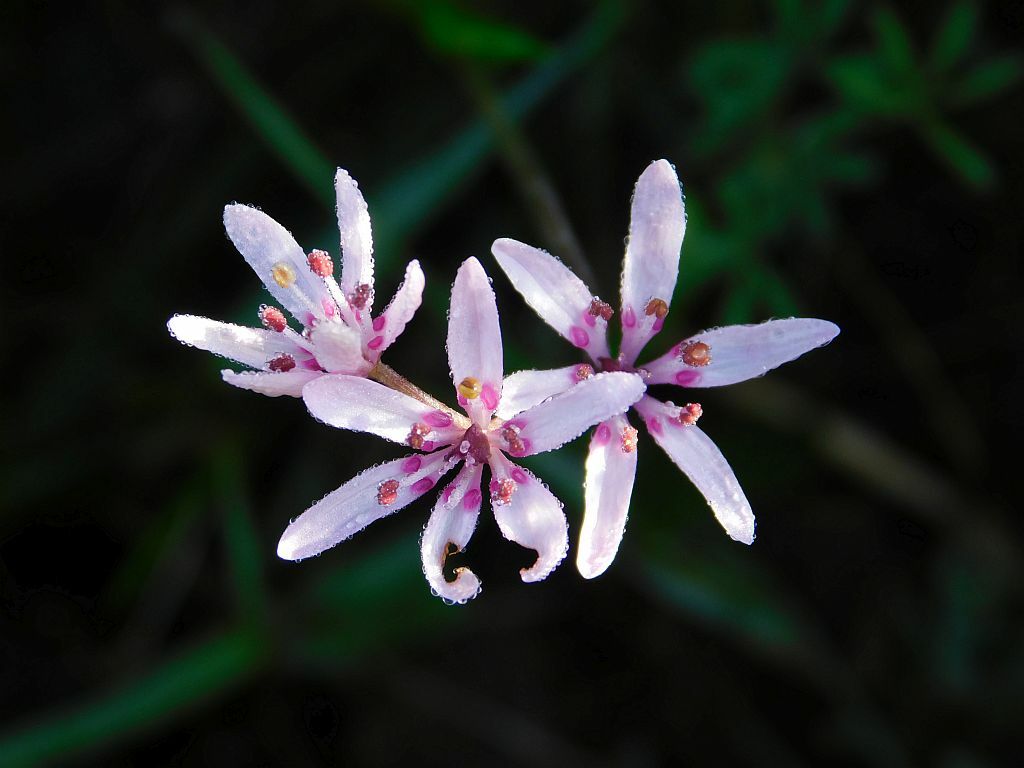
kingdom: Plantae
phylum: Tracheophyta
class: Liliopsida
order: Liliales
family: Colchicaceae
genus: Wurmbea
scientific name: Wurmbea punctata
